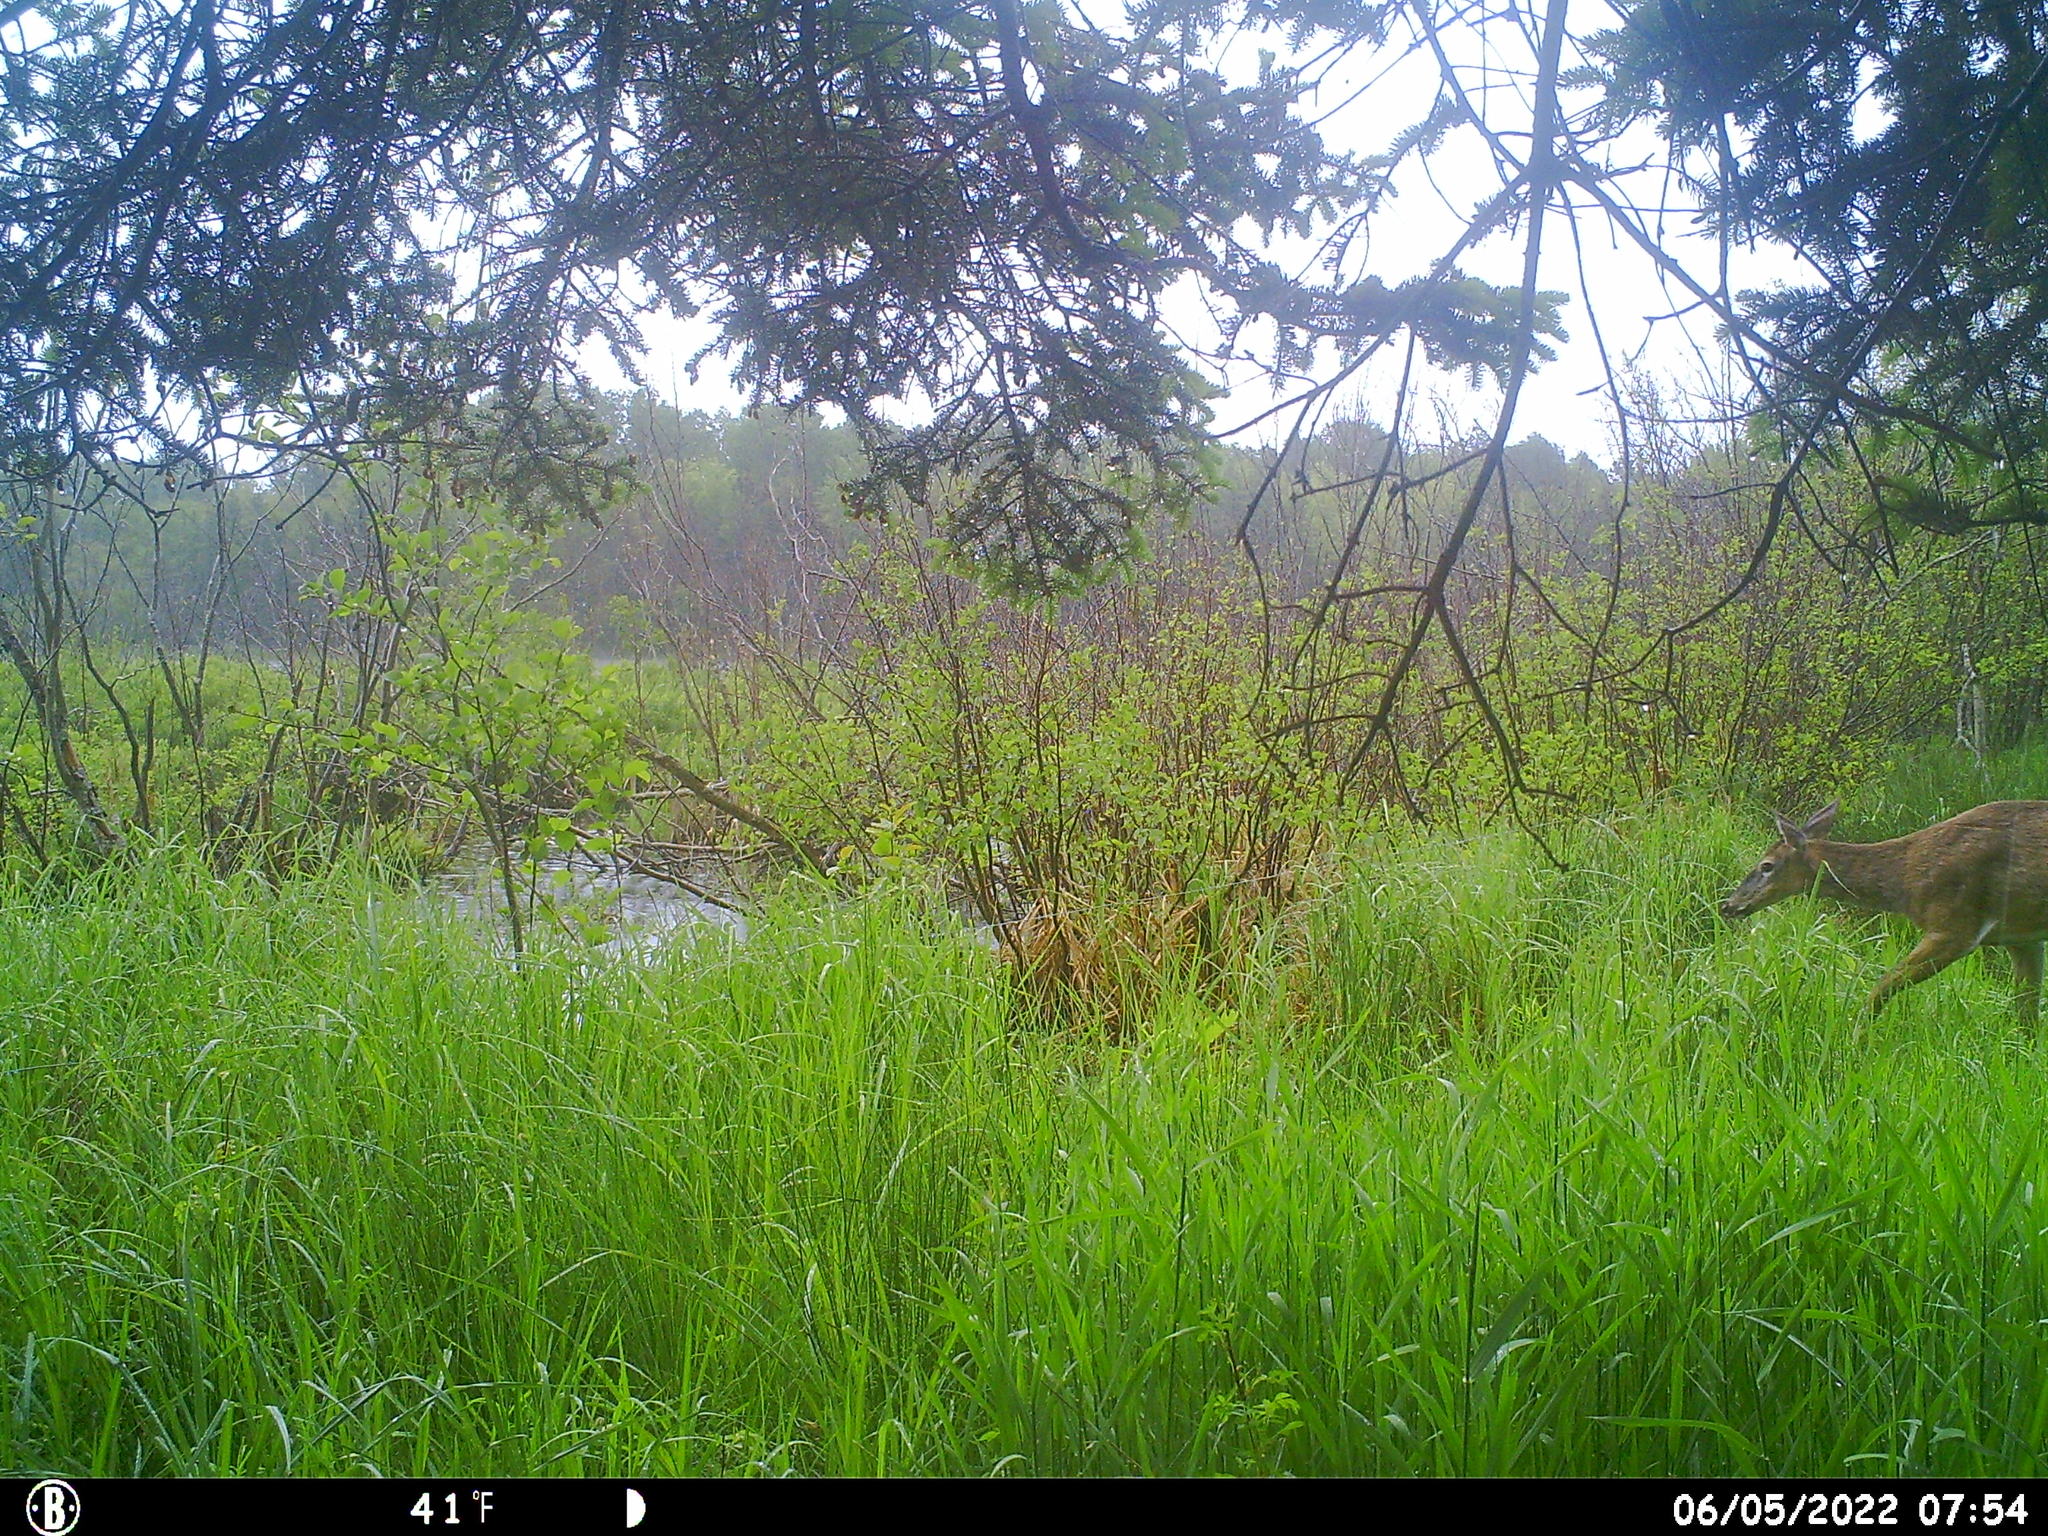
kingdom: Animalia
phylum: Chordata
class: Mammalia
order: Artiodactyla
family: Cervidae
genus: Odocoileus
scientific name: Odocoileus virginianus
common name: White-tailed deer
